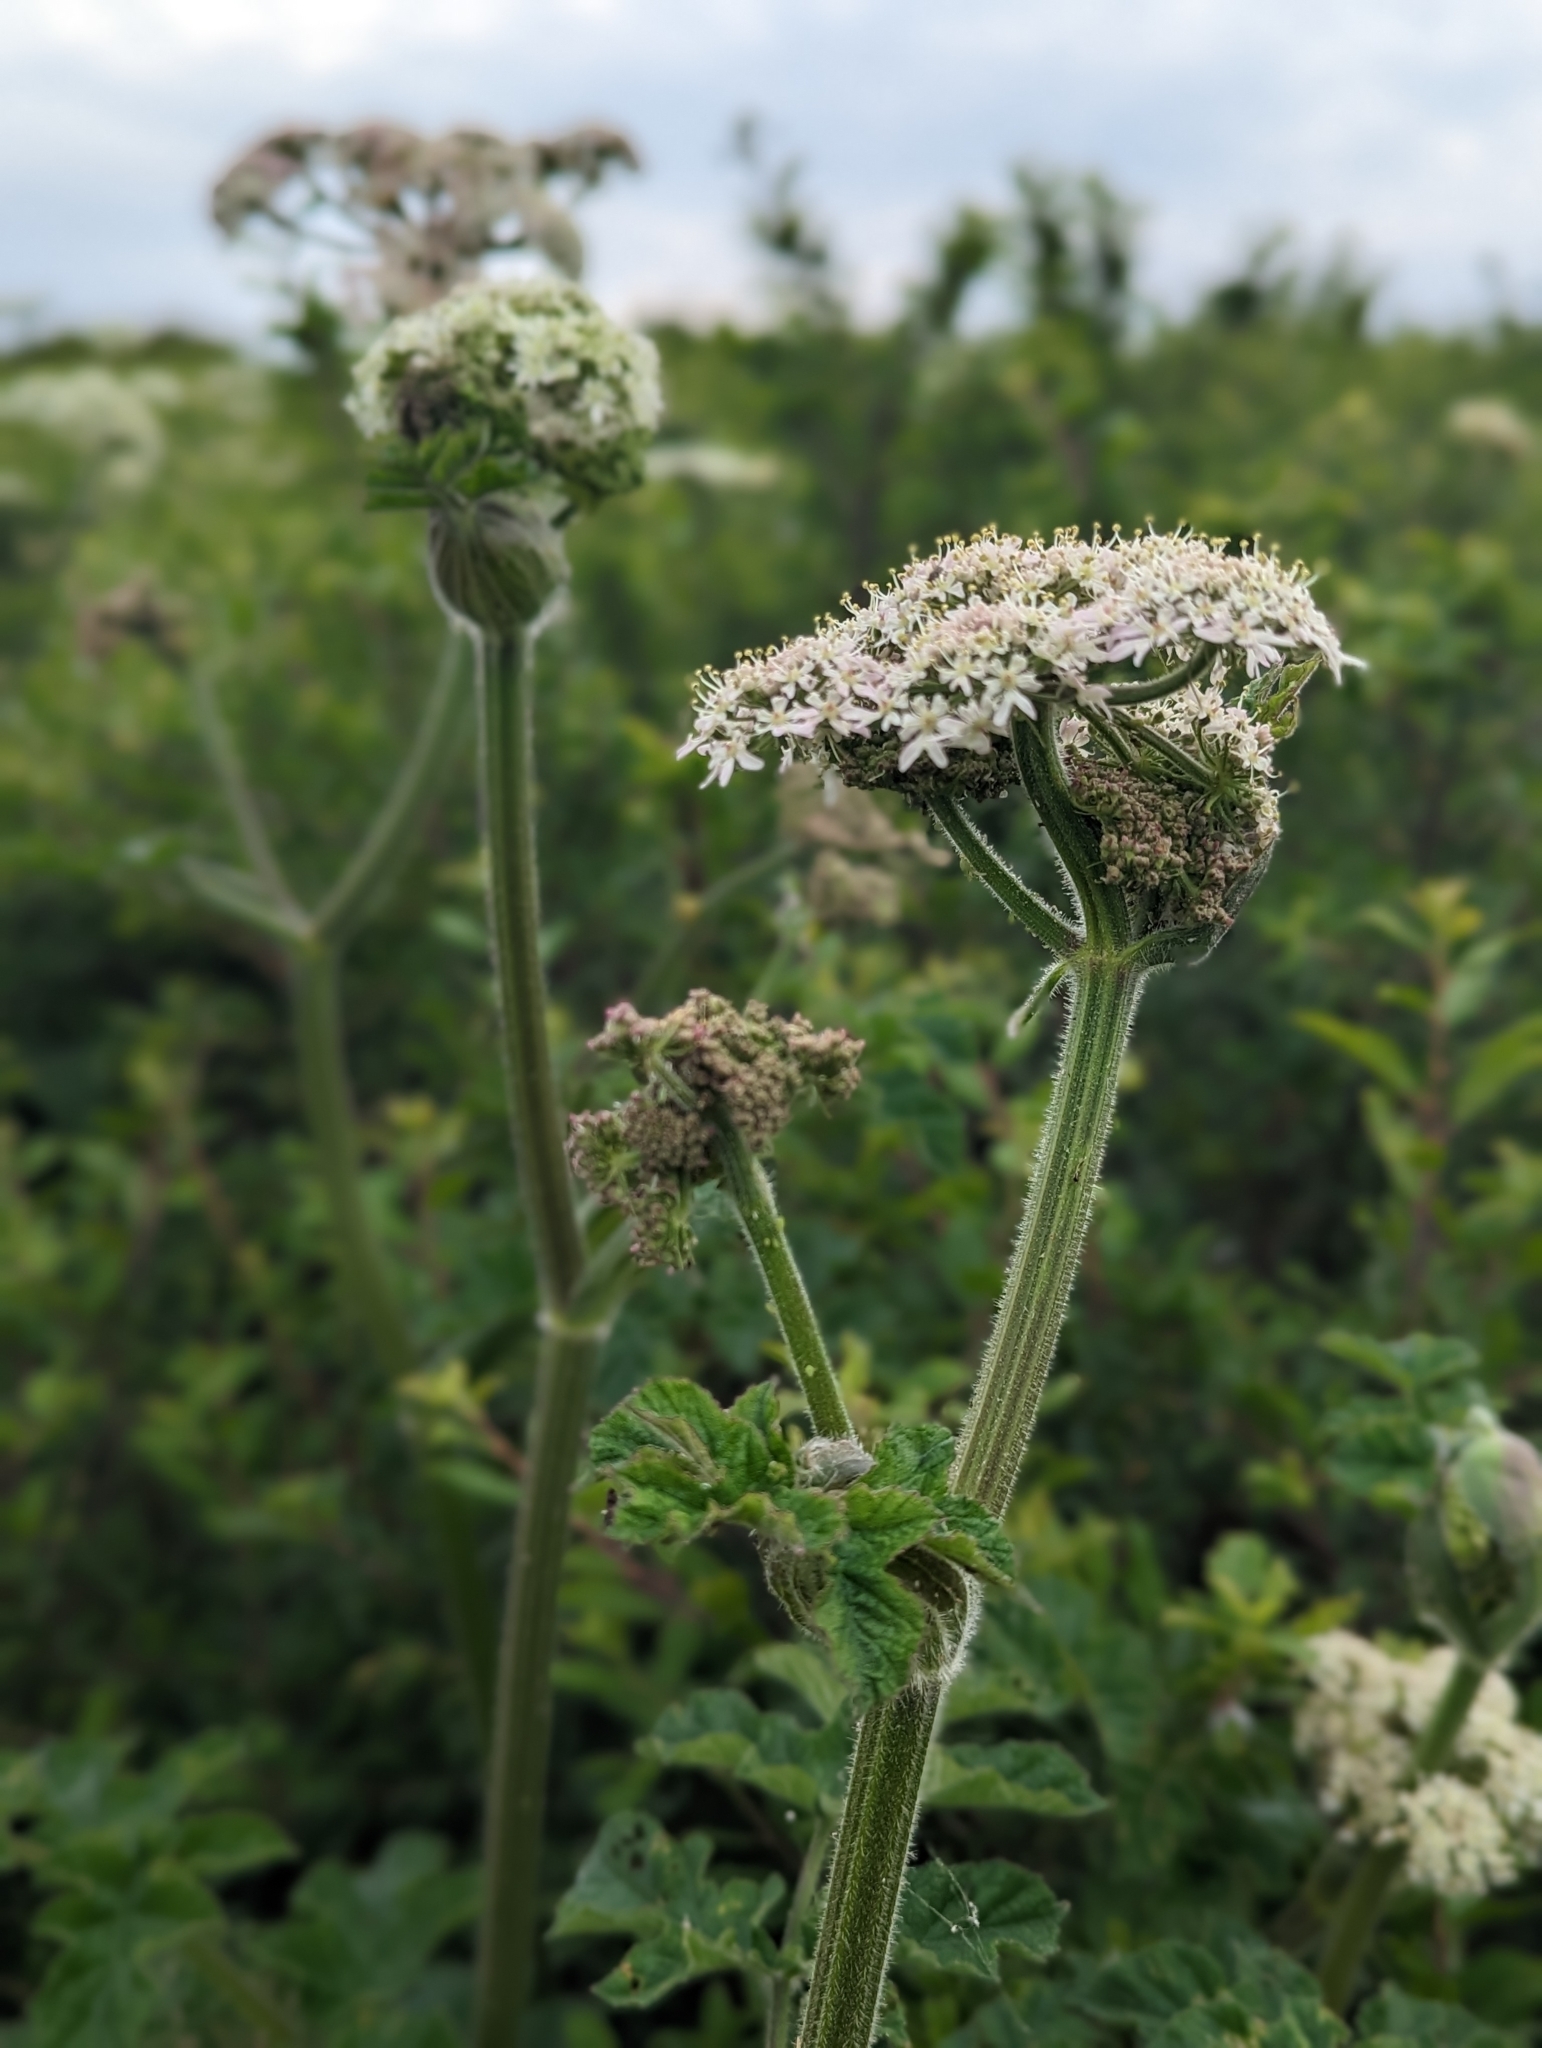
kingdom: Plantae
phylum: Tracheophyta
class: Magnoliopsida
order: Apiales
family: Apiaceae
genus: Heracleum
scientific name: Heracleum sphondylium
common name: Hogweed
